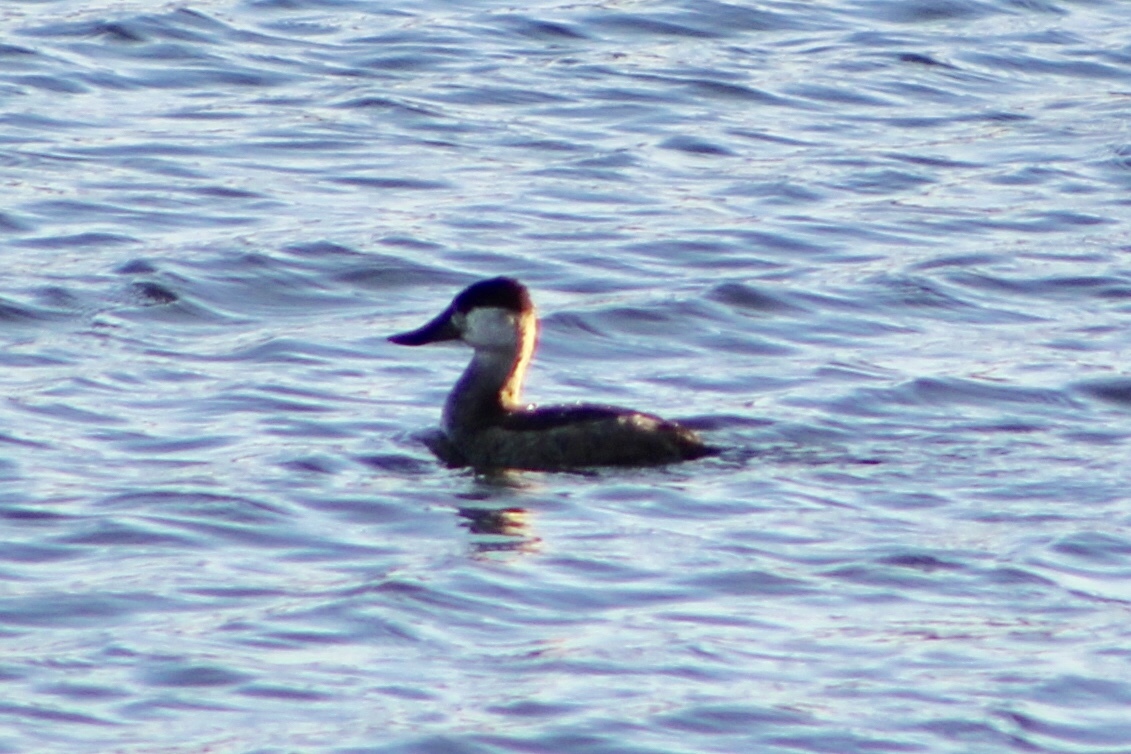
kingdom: Animalia
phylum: Chordata
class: Aves
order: Anseriformes
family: Anatidae
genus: Oxyura
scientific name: Oxyura jamaicensis
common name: Ruddy duck
